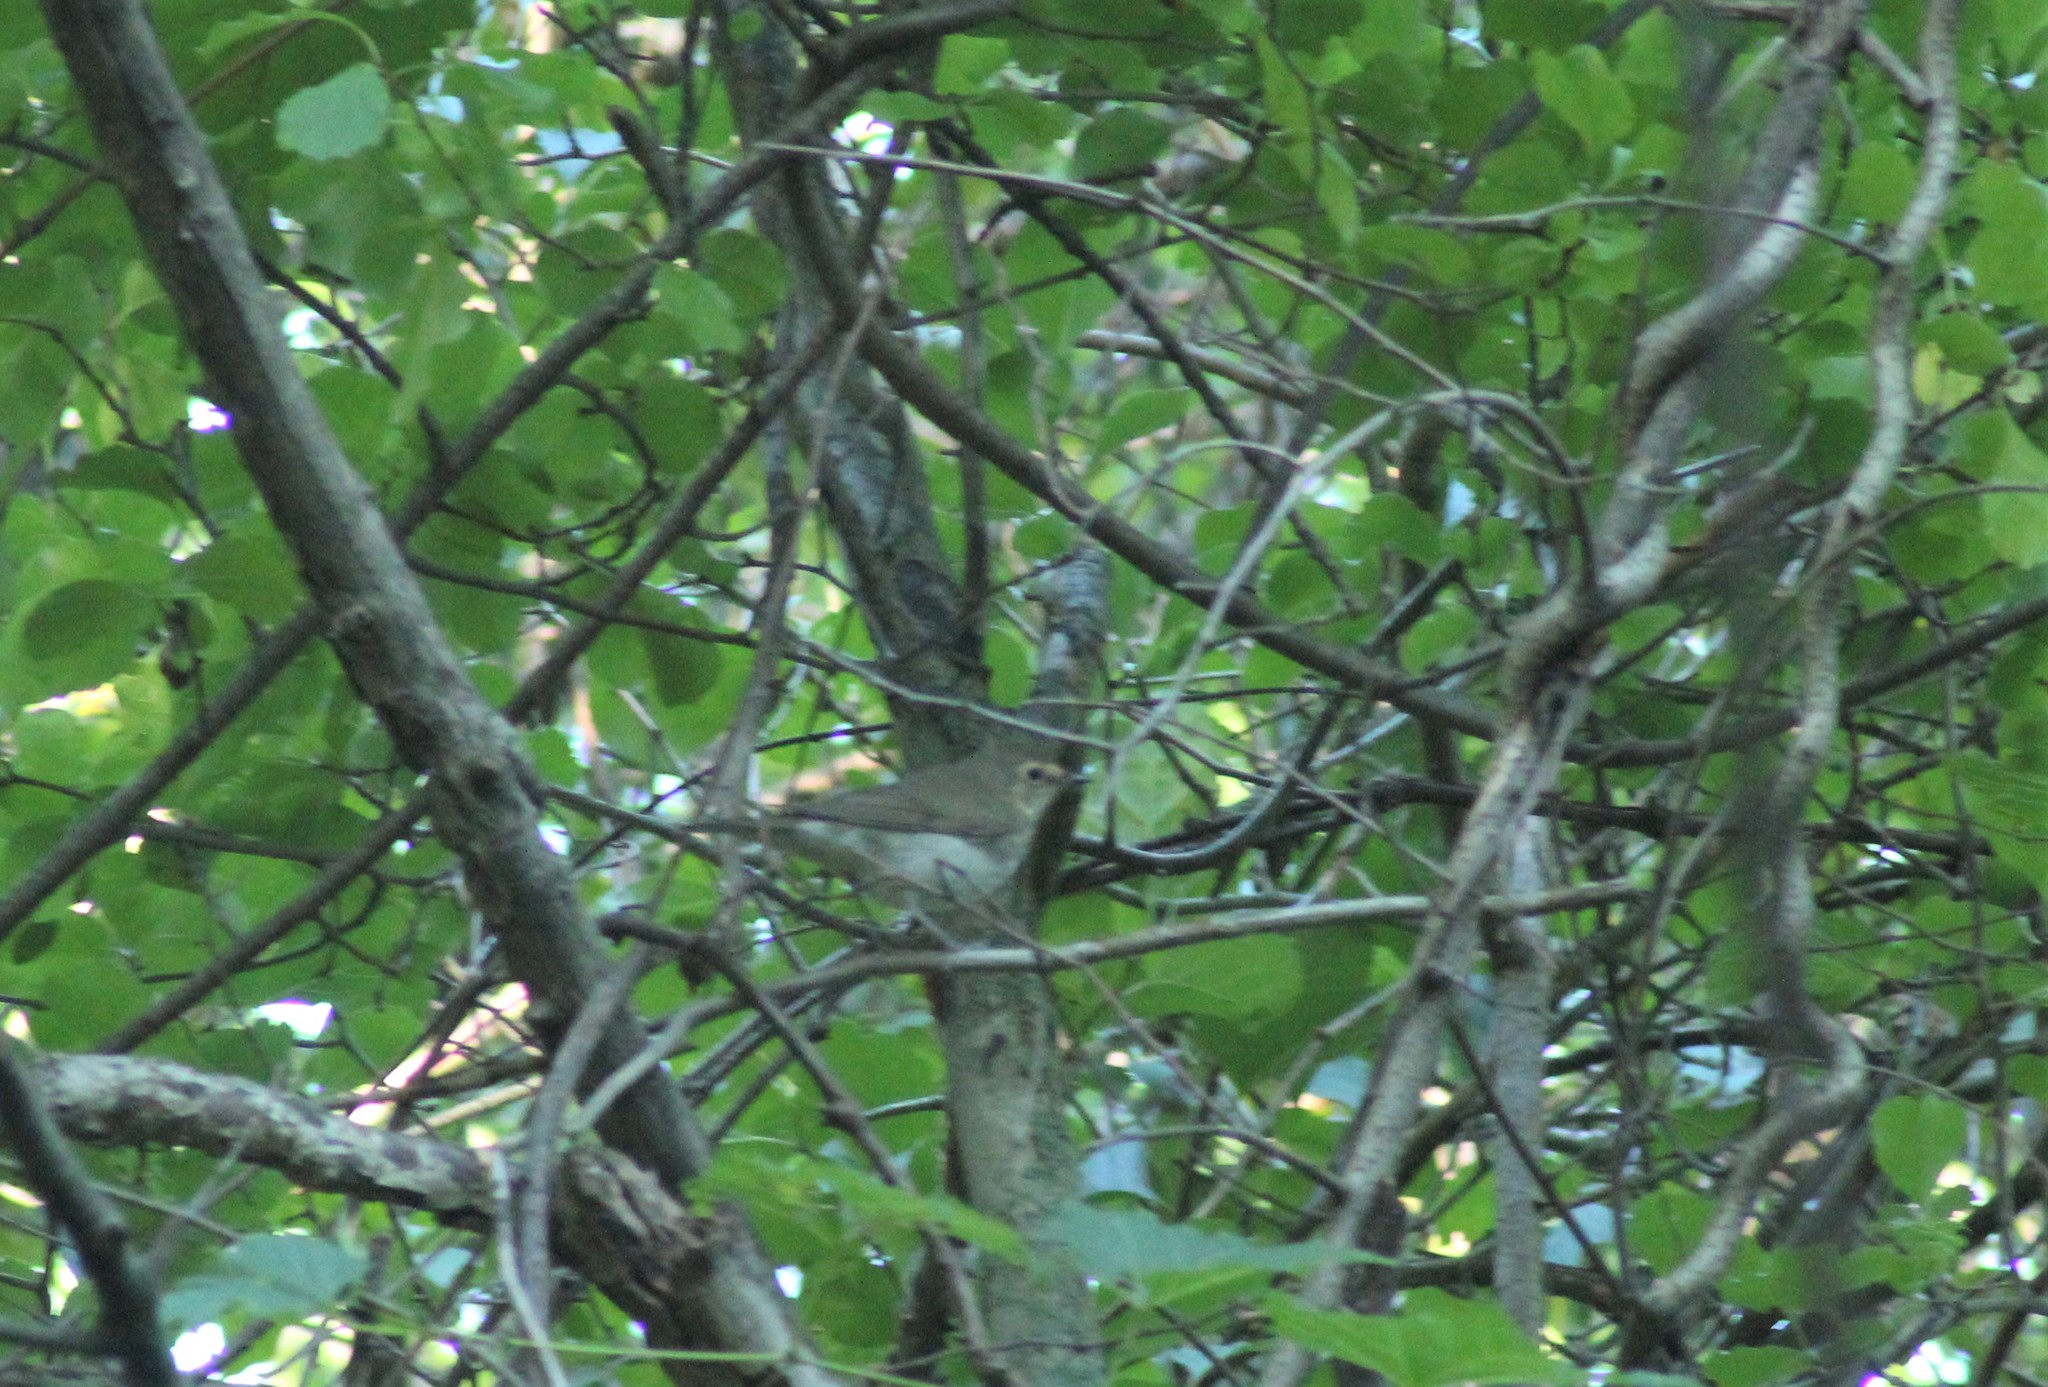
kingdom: Animalia
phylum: Chordata
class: Aves
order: Passeriformes
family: Turdidae
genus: Catharus
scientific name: Catharus ustulatus
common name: Swainson's thrush
